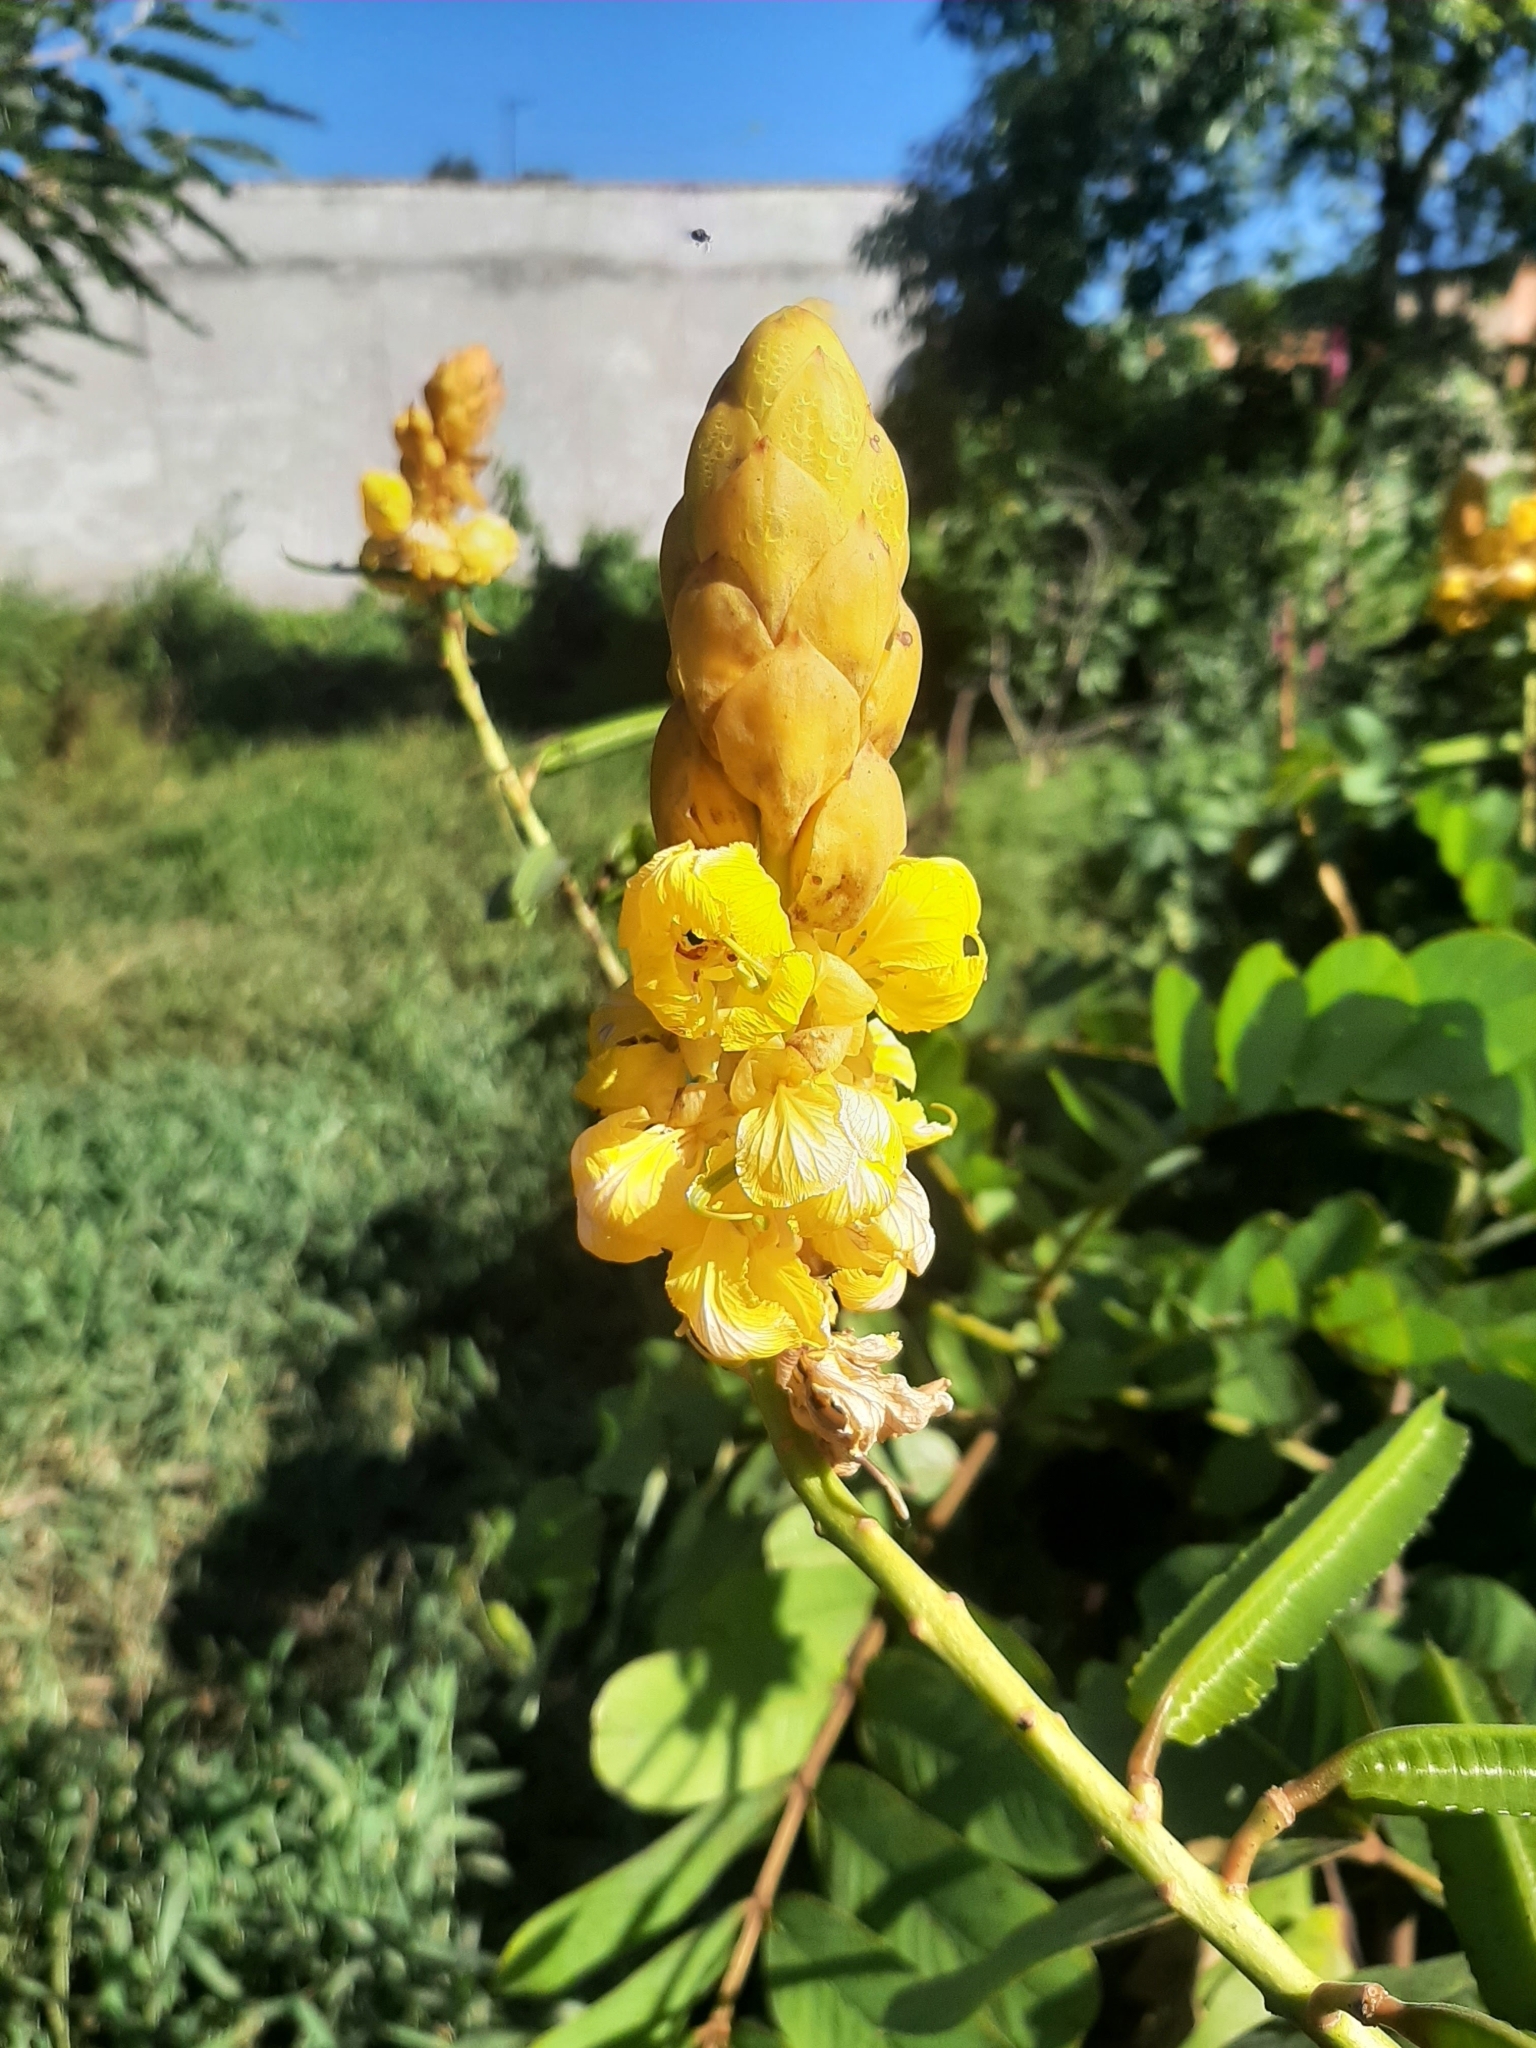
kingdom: Plantae
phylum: Tracheophyta
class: Magnoliopsida
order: Fabales
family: Fabaceae
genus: Senna
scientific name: Senna alata
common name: Emperor's candlesticks
